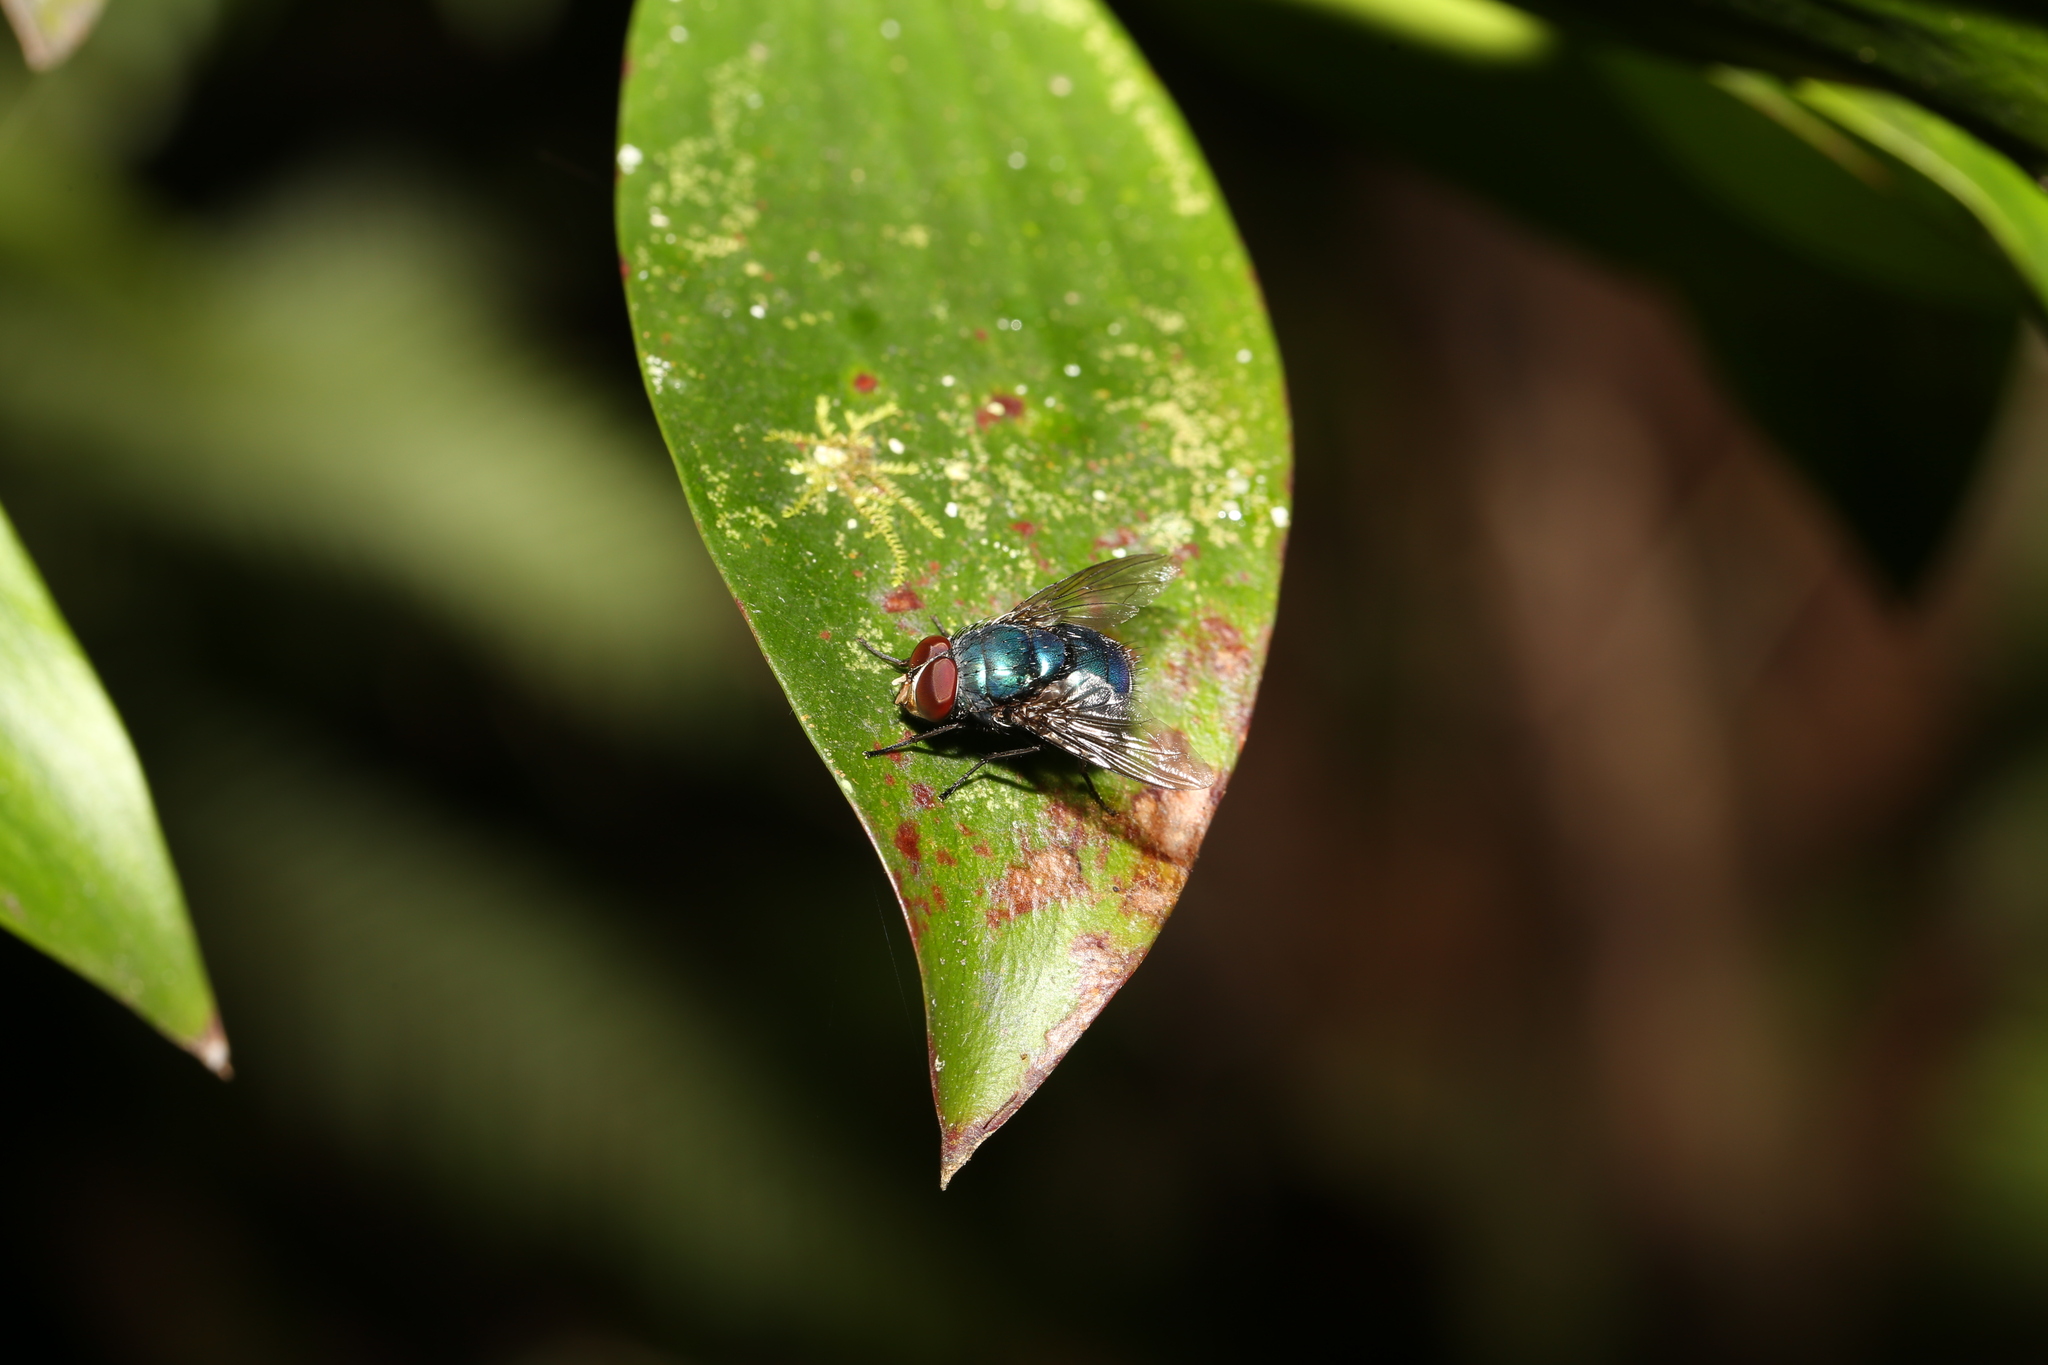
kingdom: Animalia
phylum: Arthropoda
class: Insecta
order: Diptera
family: Calliphoridae
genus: Lucilia
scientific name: Lucilia porphyrina
